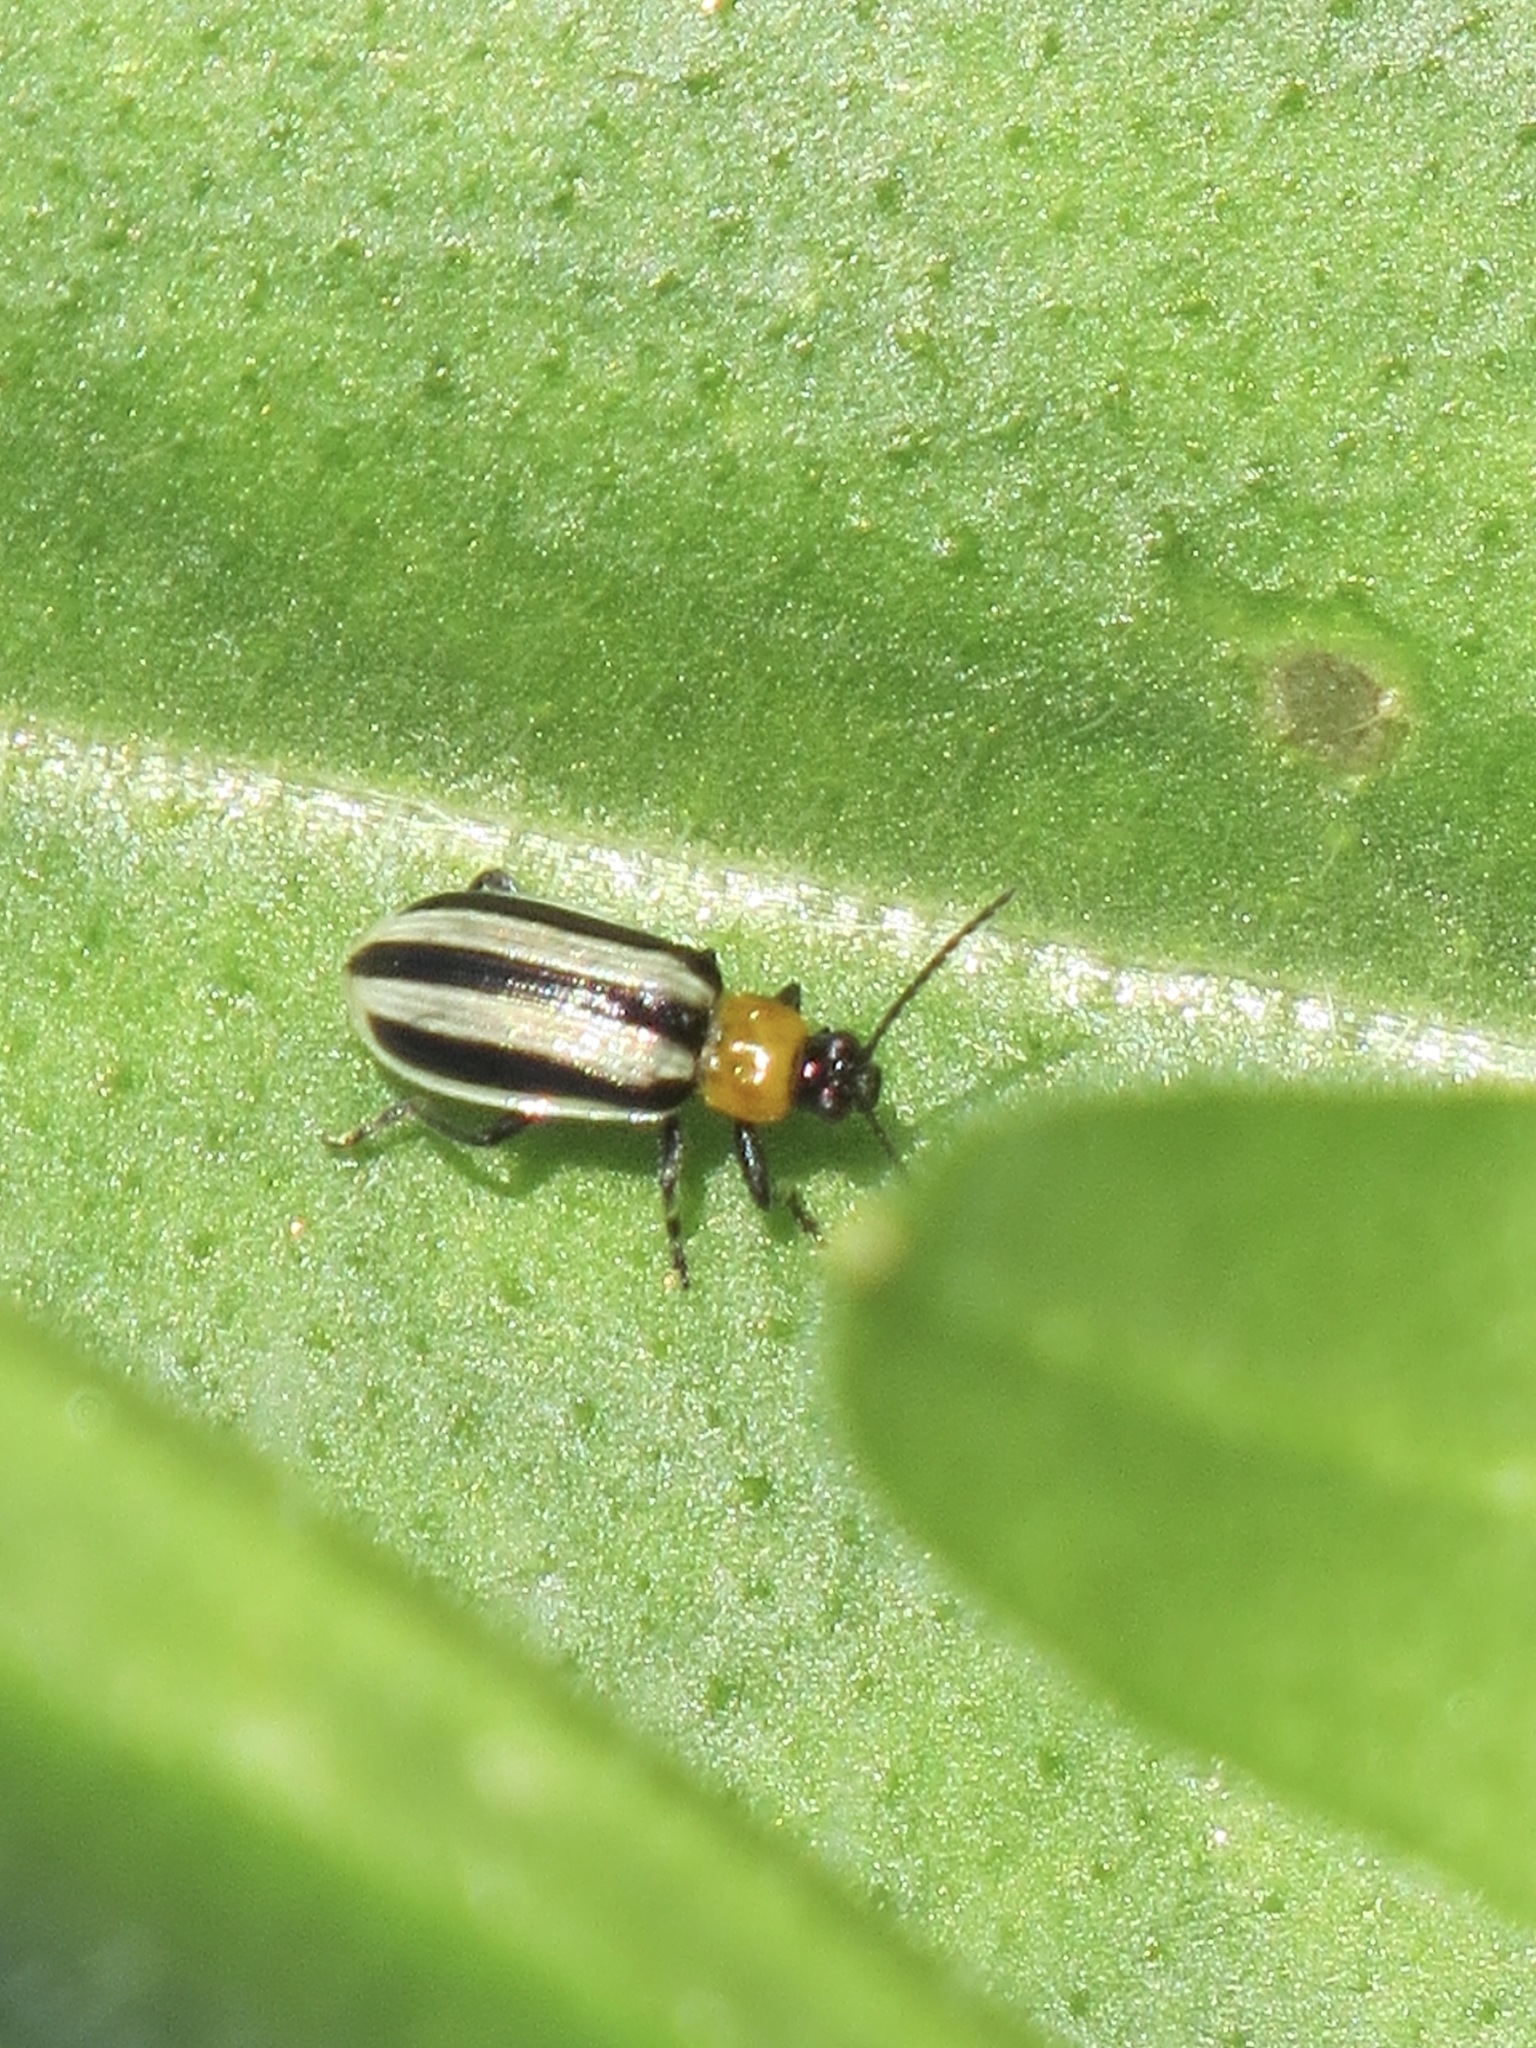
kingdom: Animalia
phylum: Arthropoda
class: Insecta
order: Coleoptera
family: Chrysomelidae
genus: Acalymma
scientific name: Acalymma trivittatum
